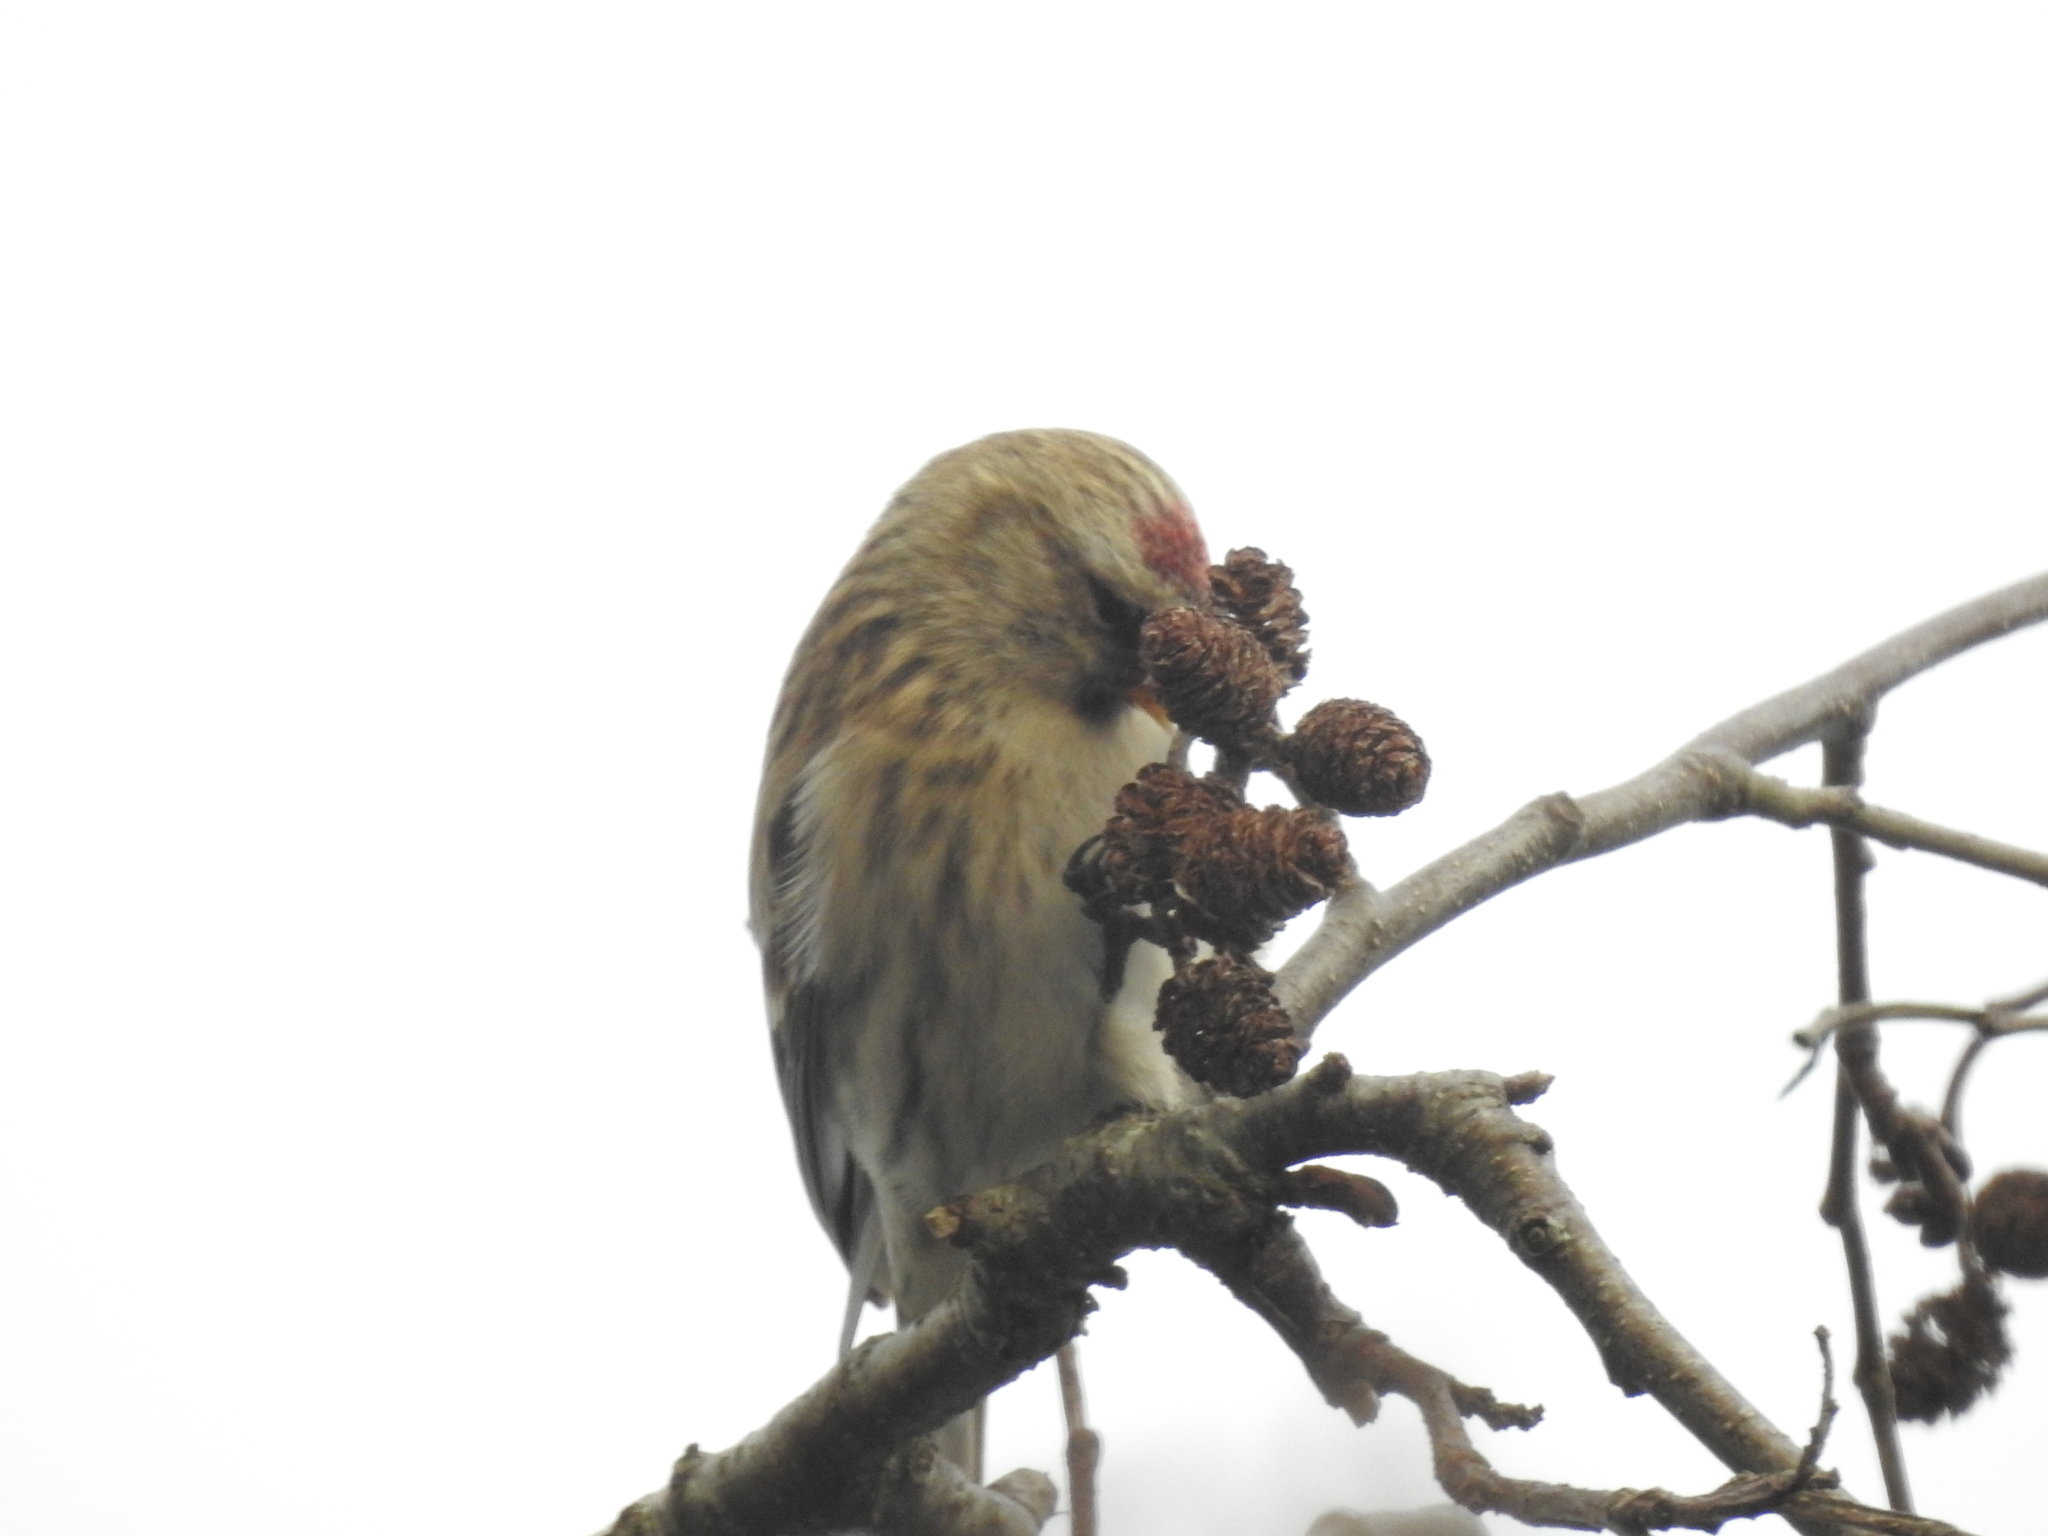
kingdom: Animalia
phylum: Chordata
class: Aves
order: Passeriformes
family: Fringillidae
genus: Acanthis
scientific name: Acanthis flammea
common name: Common redpoll
